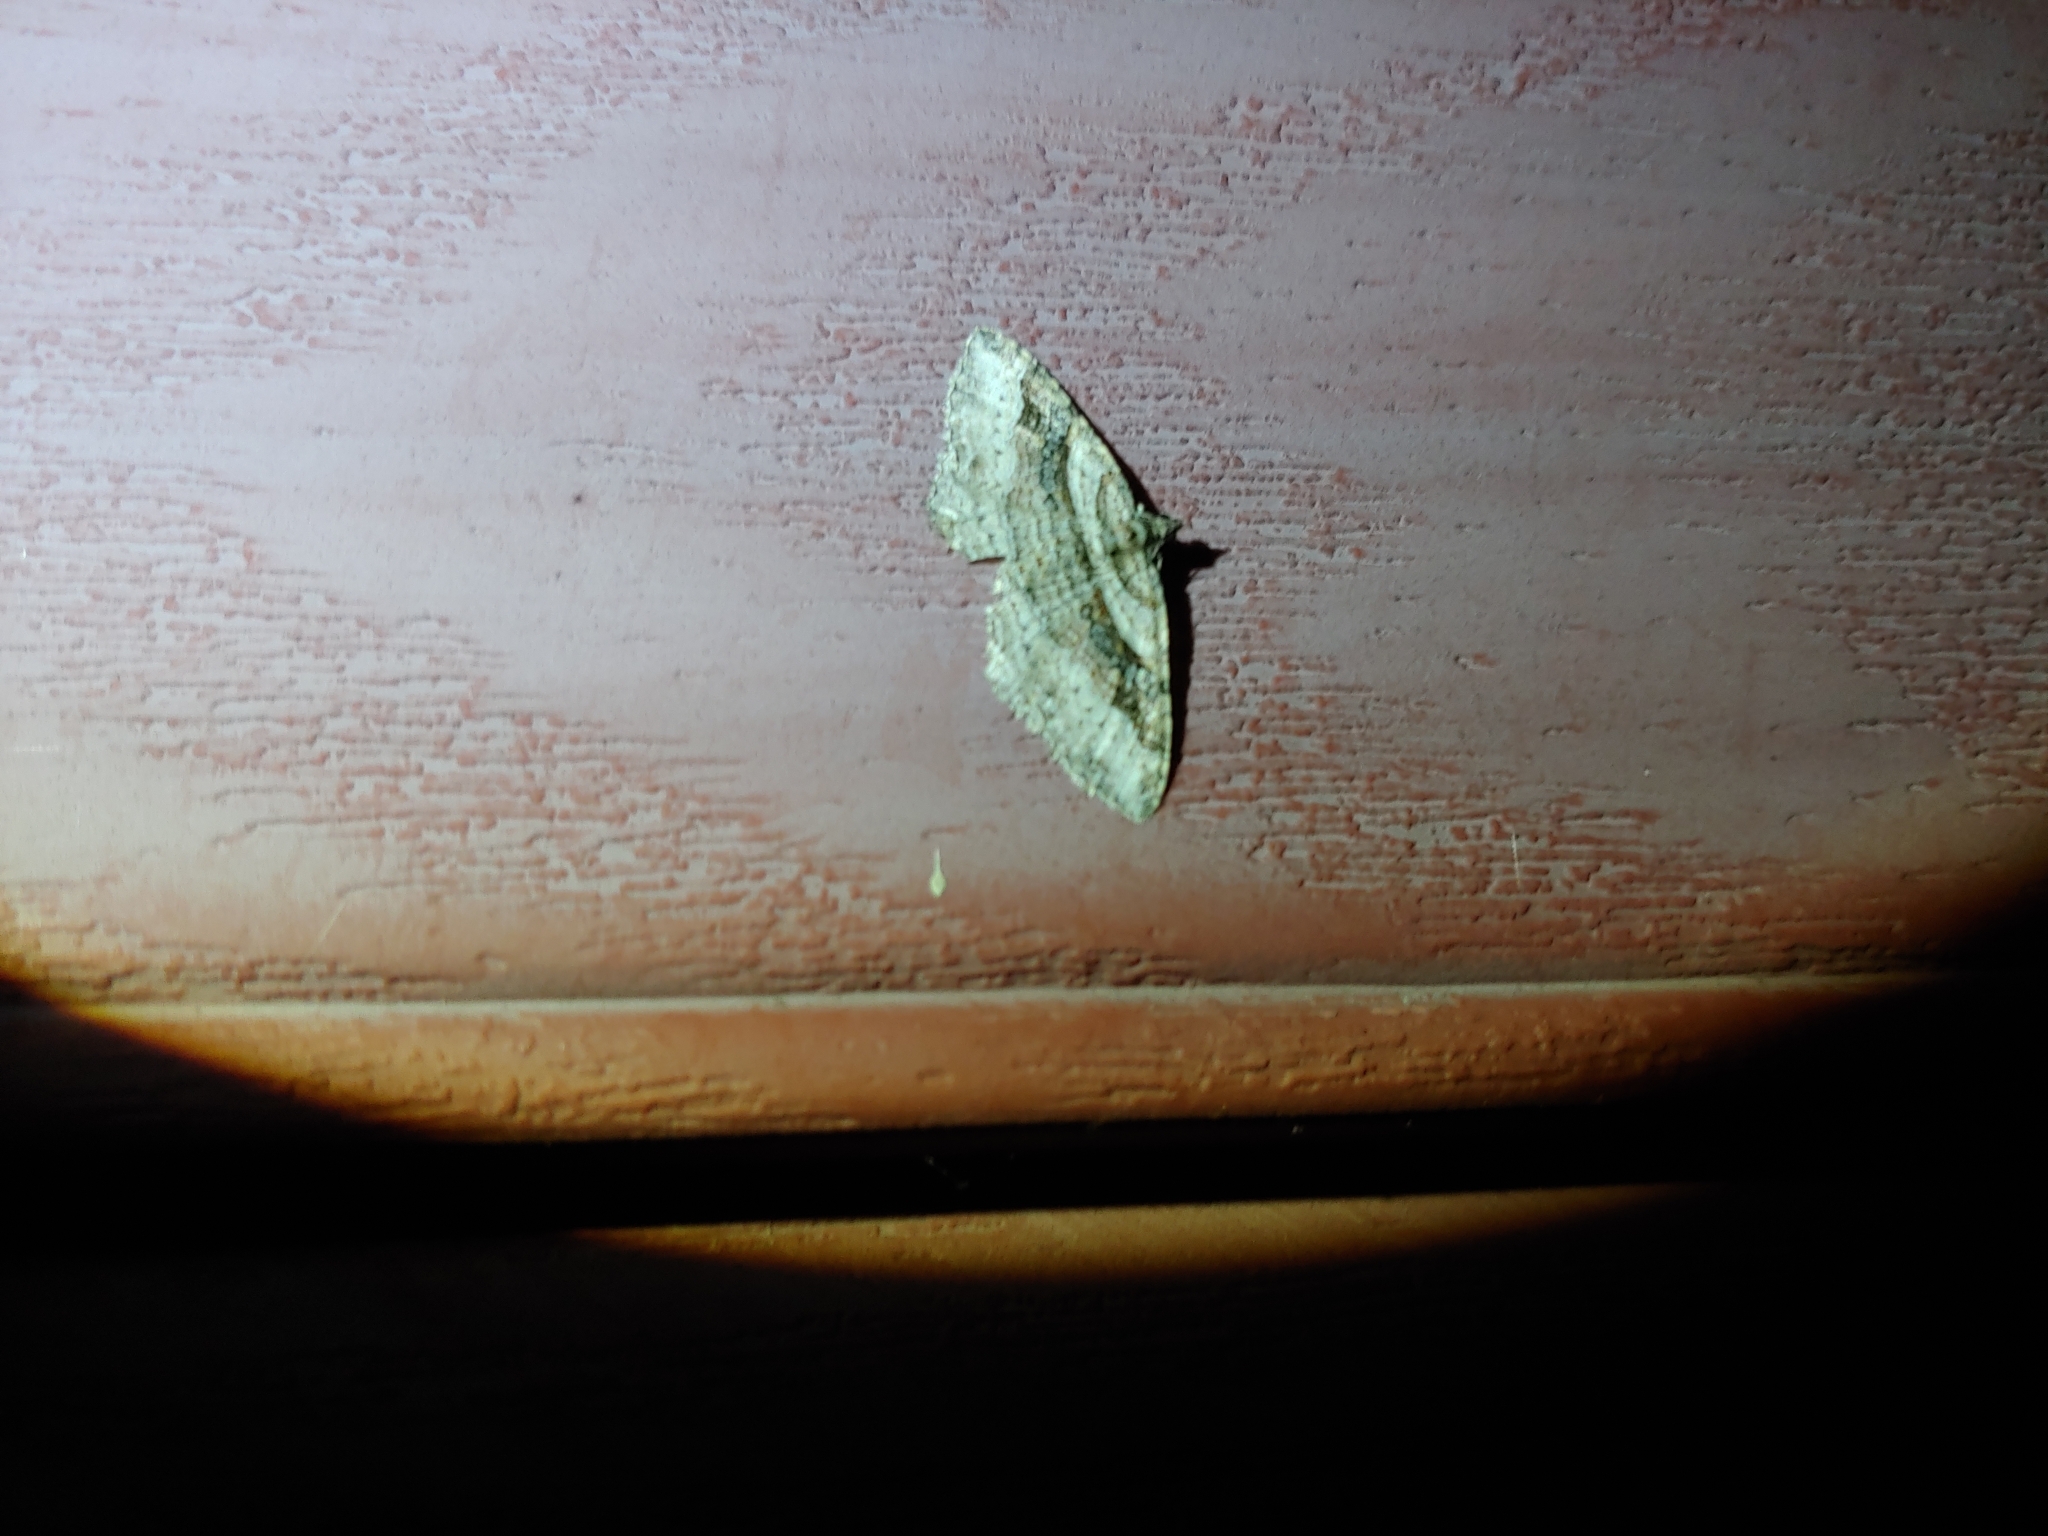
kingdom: Animalia
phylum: Arthropoda
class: Insecta
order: Lepidoptera
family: Geometridae
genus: Costaconvexa
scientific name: Costaconvexa centrostrigaria
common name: Bent-line carpet
